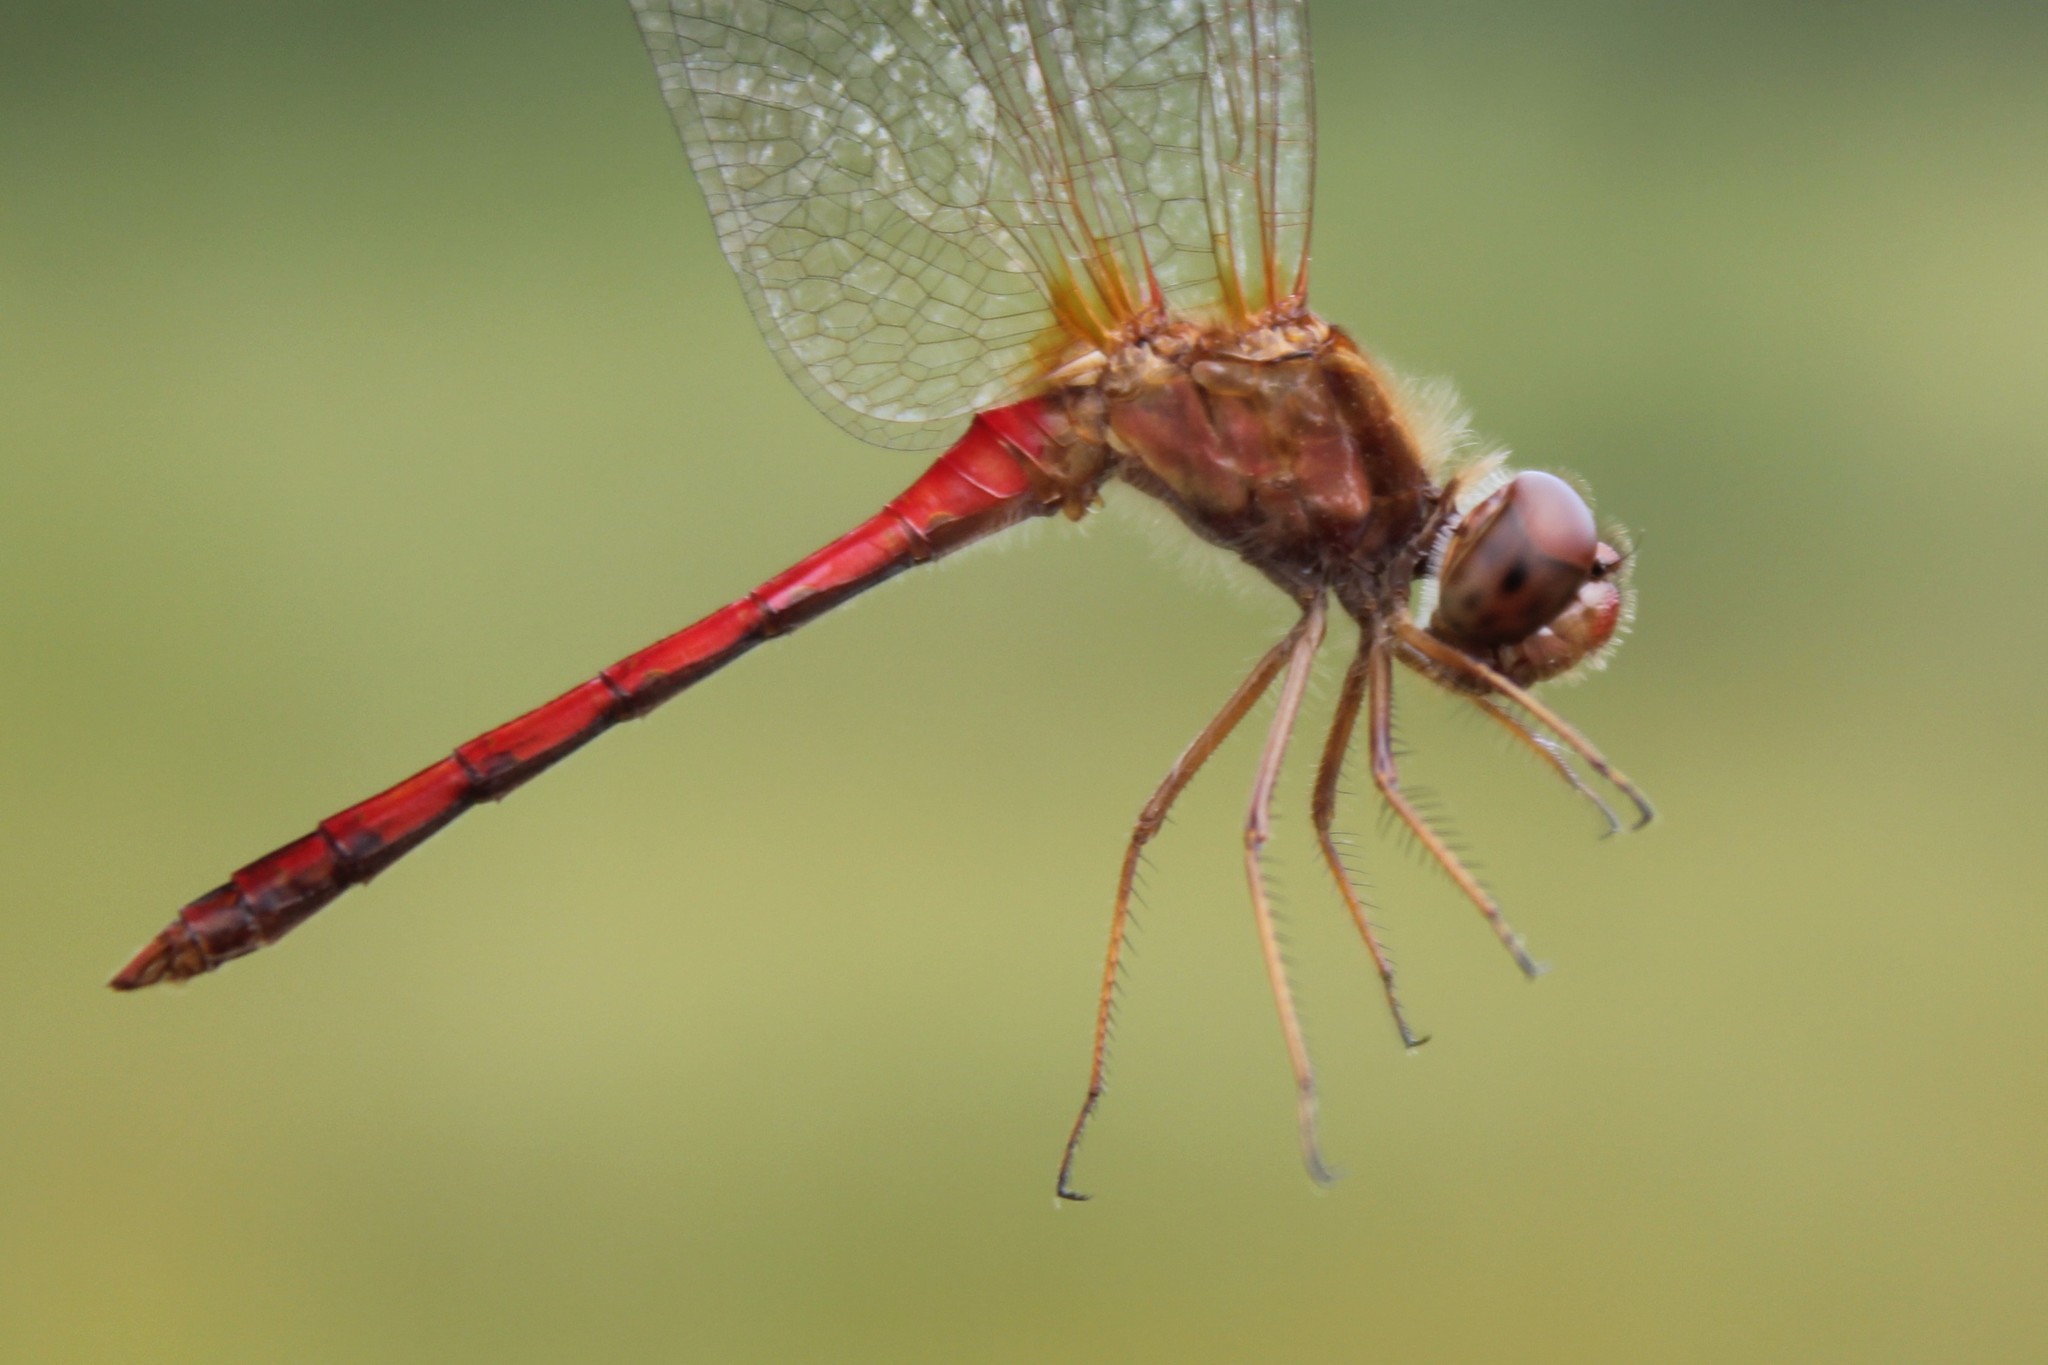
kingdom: Animalia
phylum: Arthropoda
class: Insecta
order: Odonata
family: Libellulidae
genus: Sympetrum
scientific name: Sympetrum vicinum
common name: Autumn meadowhawk
